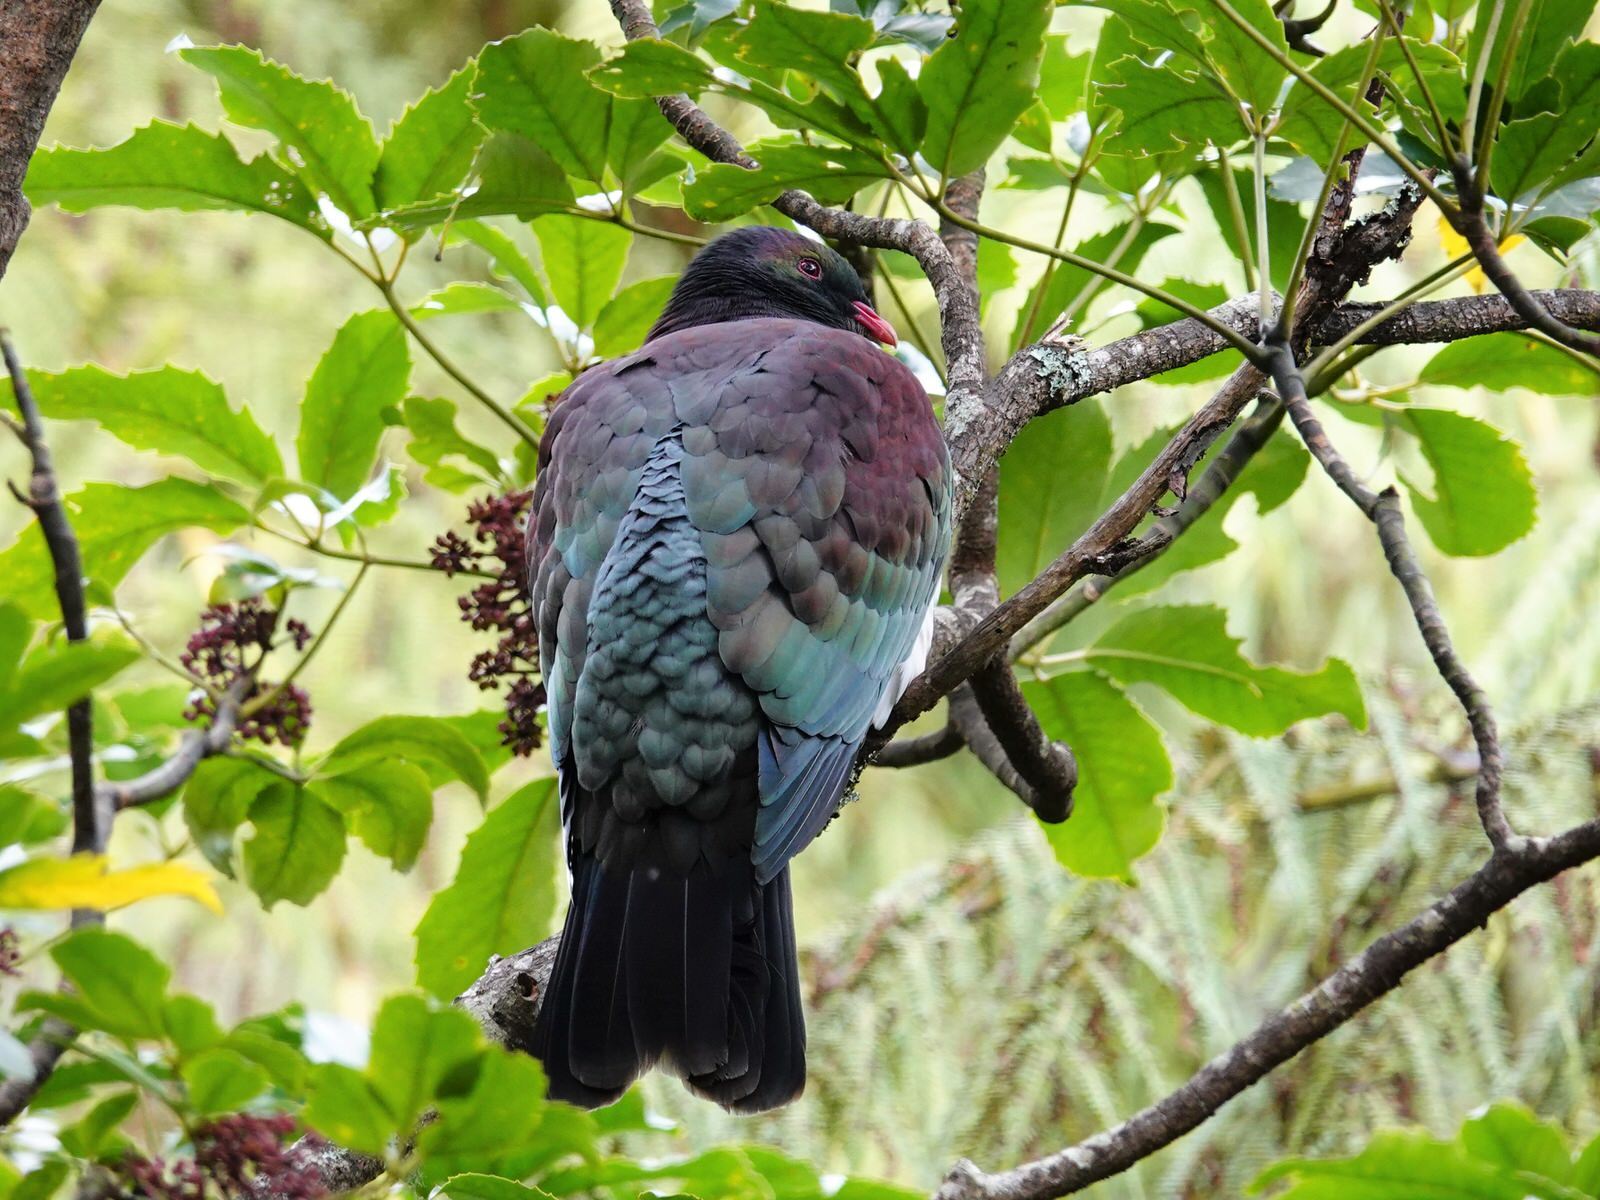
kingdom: Animalia
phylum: Chordata
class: Aves
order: Columbiformes
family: Columbidae
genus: Hemiphaga
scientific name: Hemiphaga novaeseelandiae
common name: New zealand pigeon
